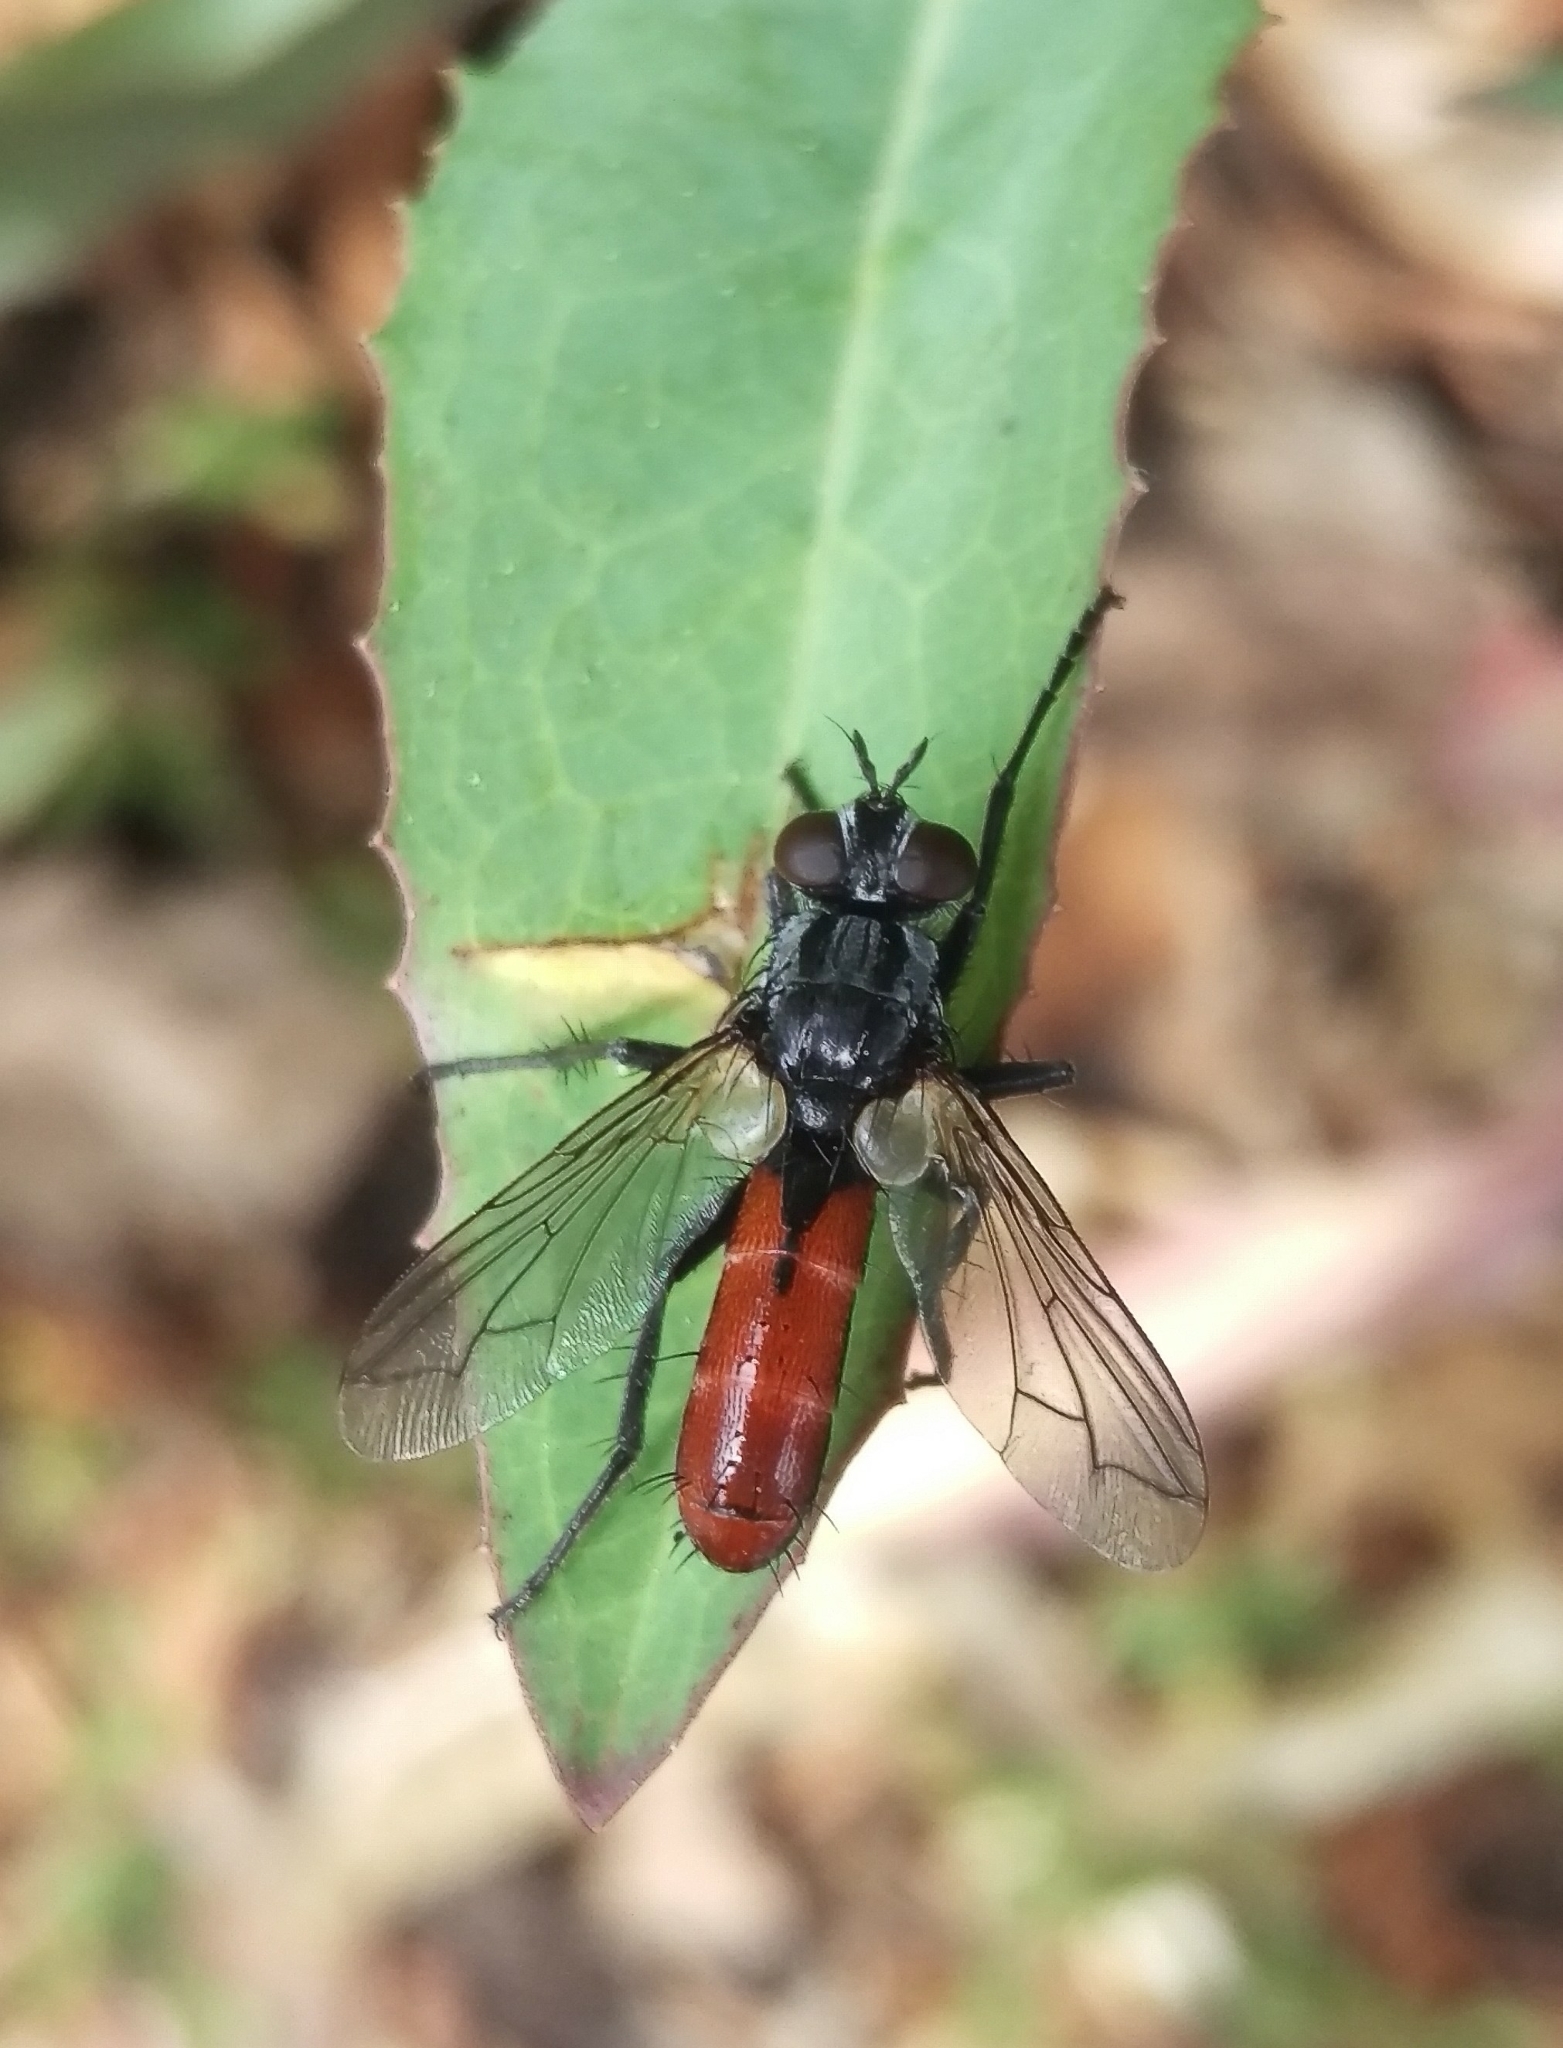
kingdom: Animalia
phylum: Arthropoda
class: Insecta
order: Diptera
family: Tachinidae
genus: Cylindromyia
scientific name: Cylindromyia bicolor
